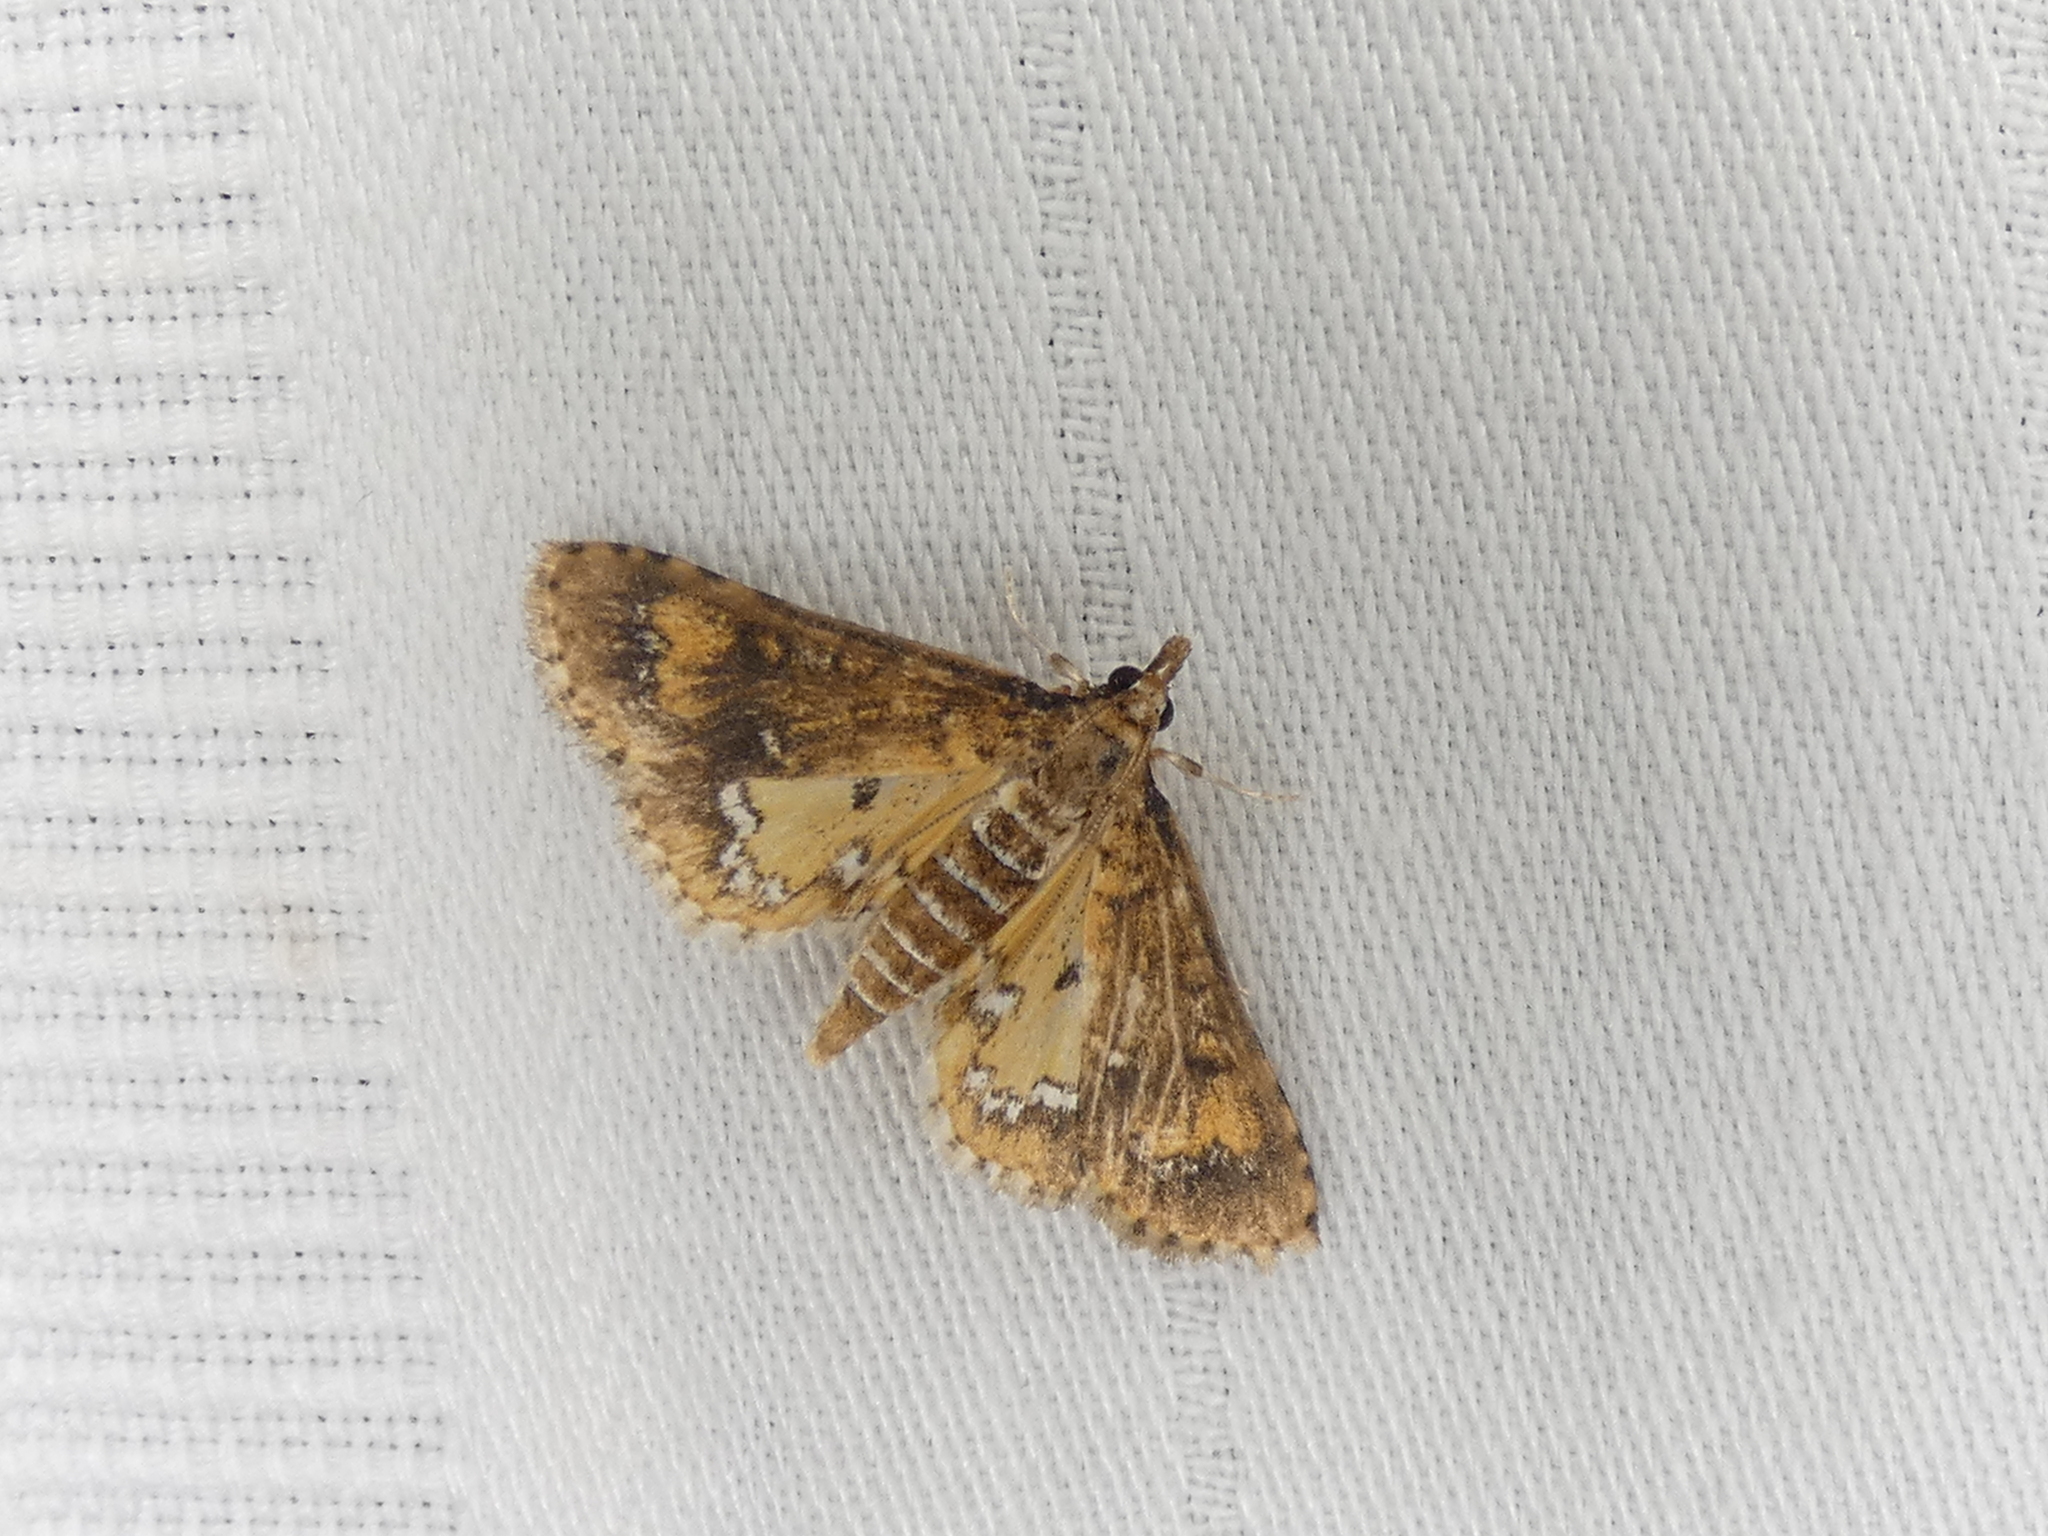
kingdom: Animalia
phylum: Arthropoda
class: Insecta
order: Lepidoptera
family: Crambidae
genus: Niphograpta
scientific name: Niphograpta albiguttalis
